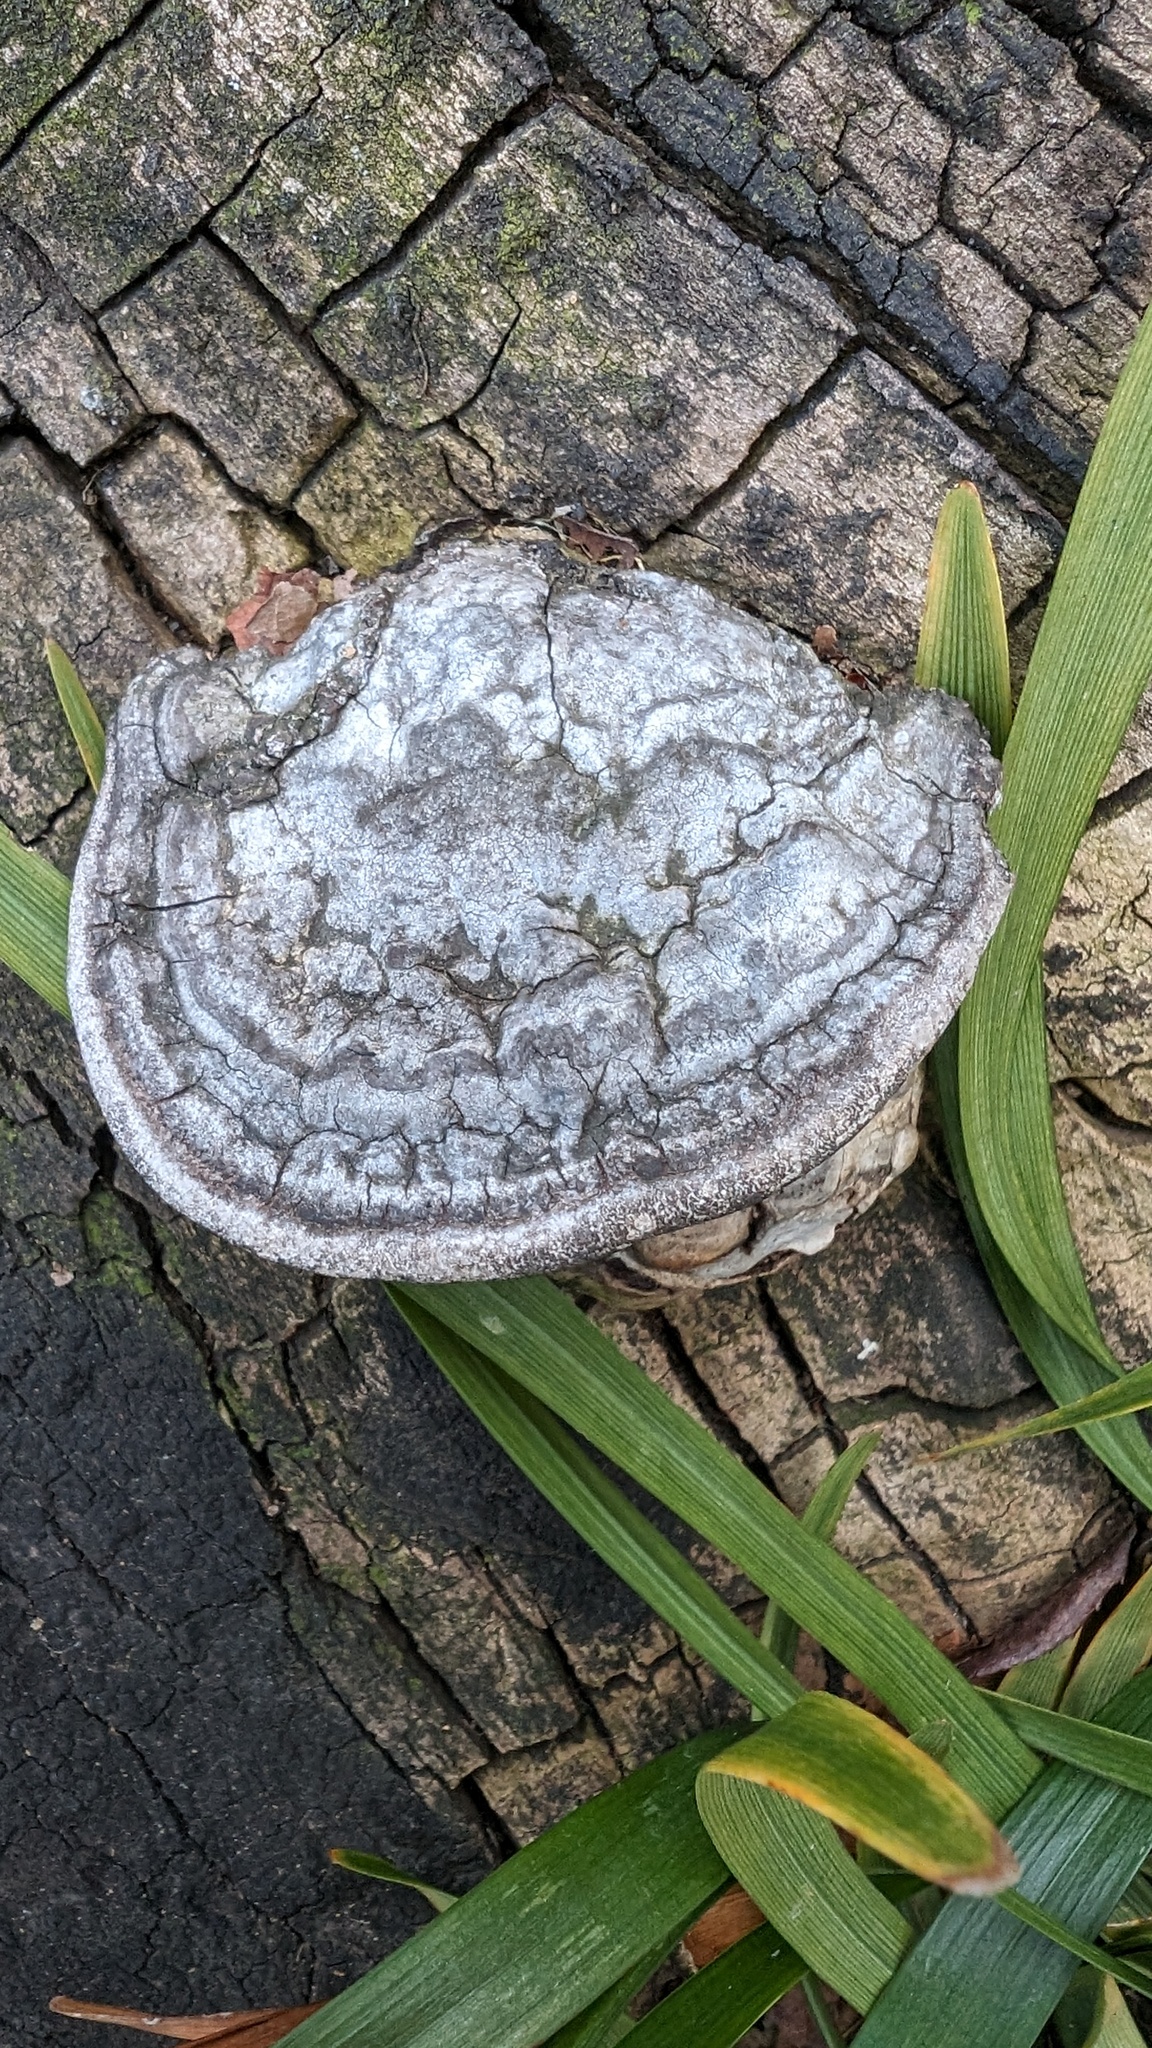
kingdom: Fungi
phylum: Basidiomycota
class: Agaricomycetes
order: Polyporales
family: Polyporaceae
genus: Ganoderma
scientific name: Ganoderma applanatum
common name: Artist's bracket
